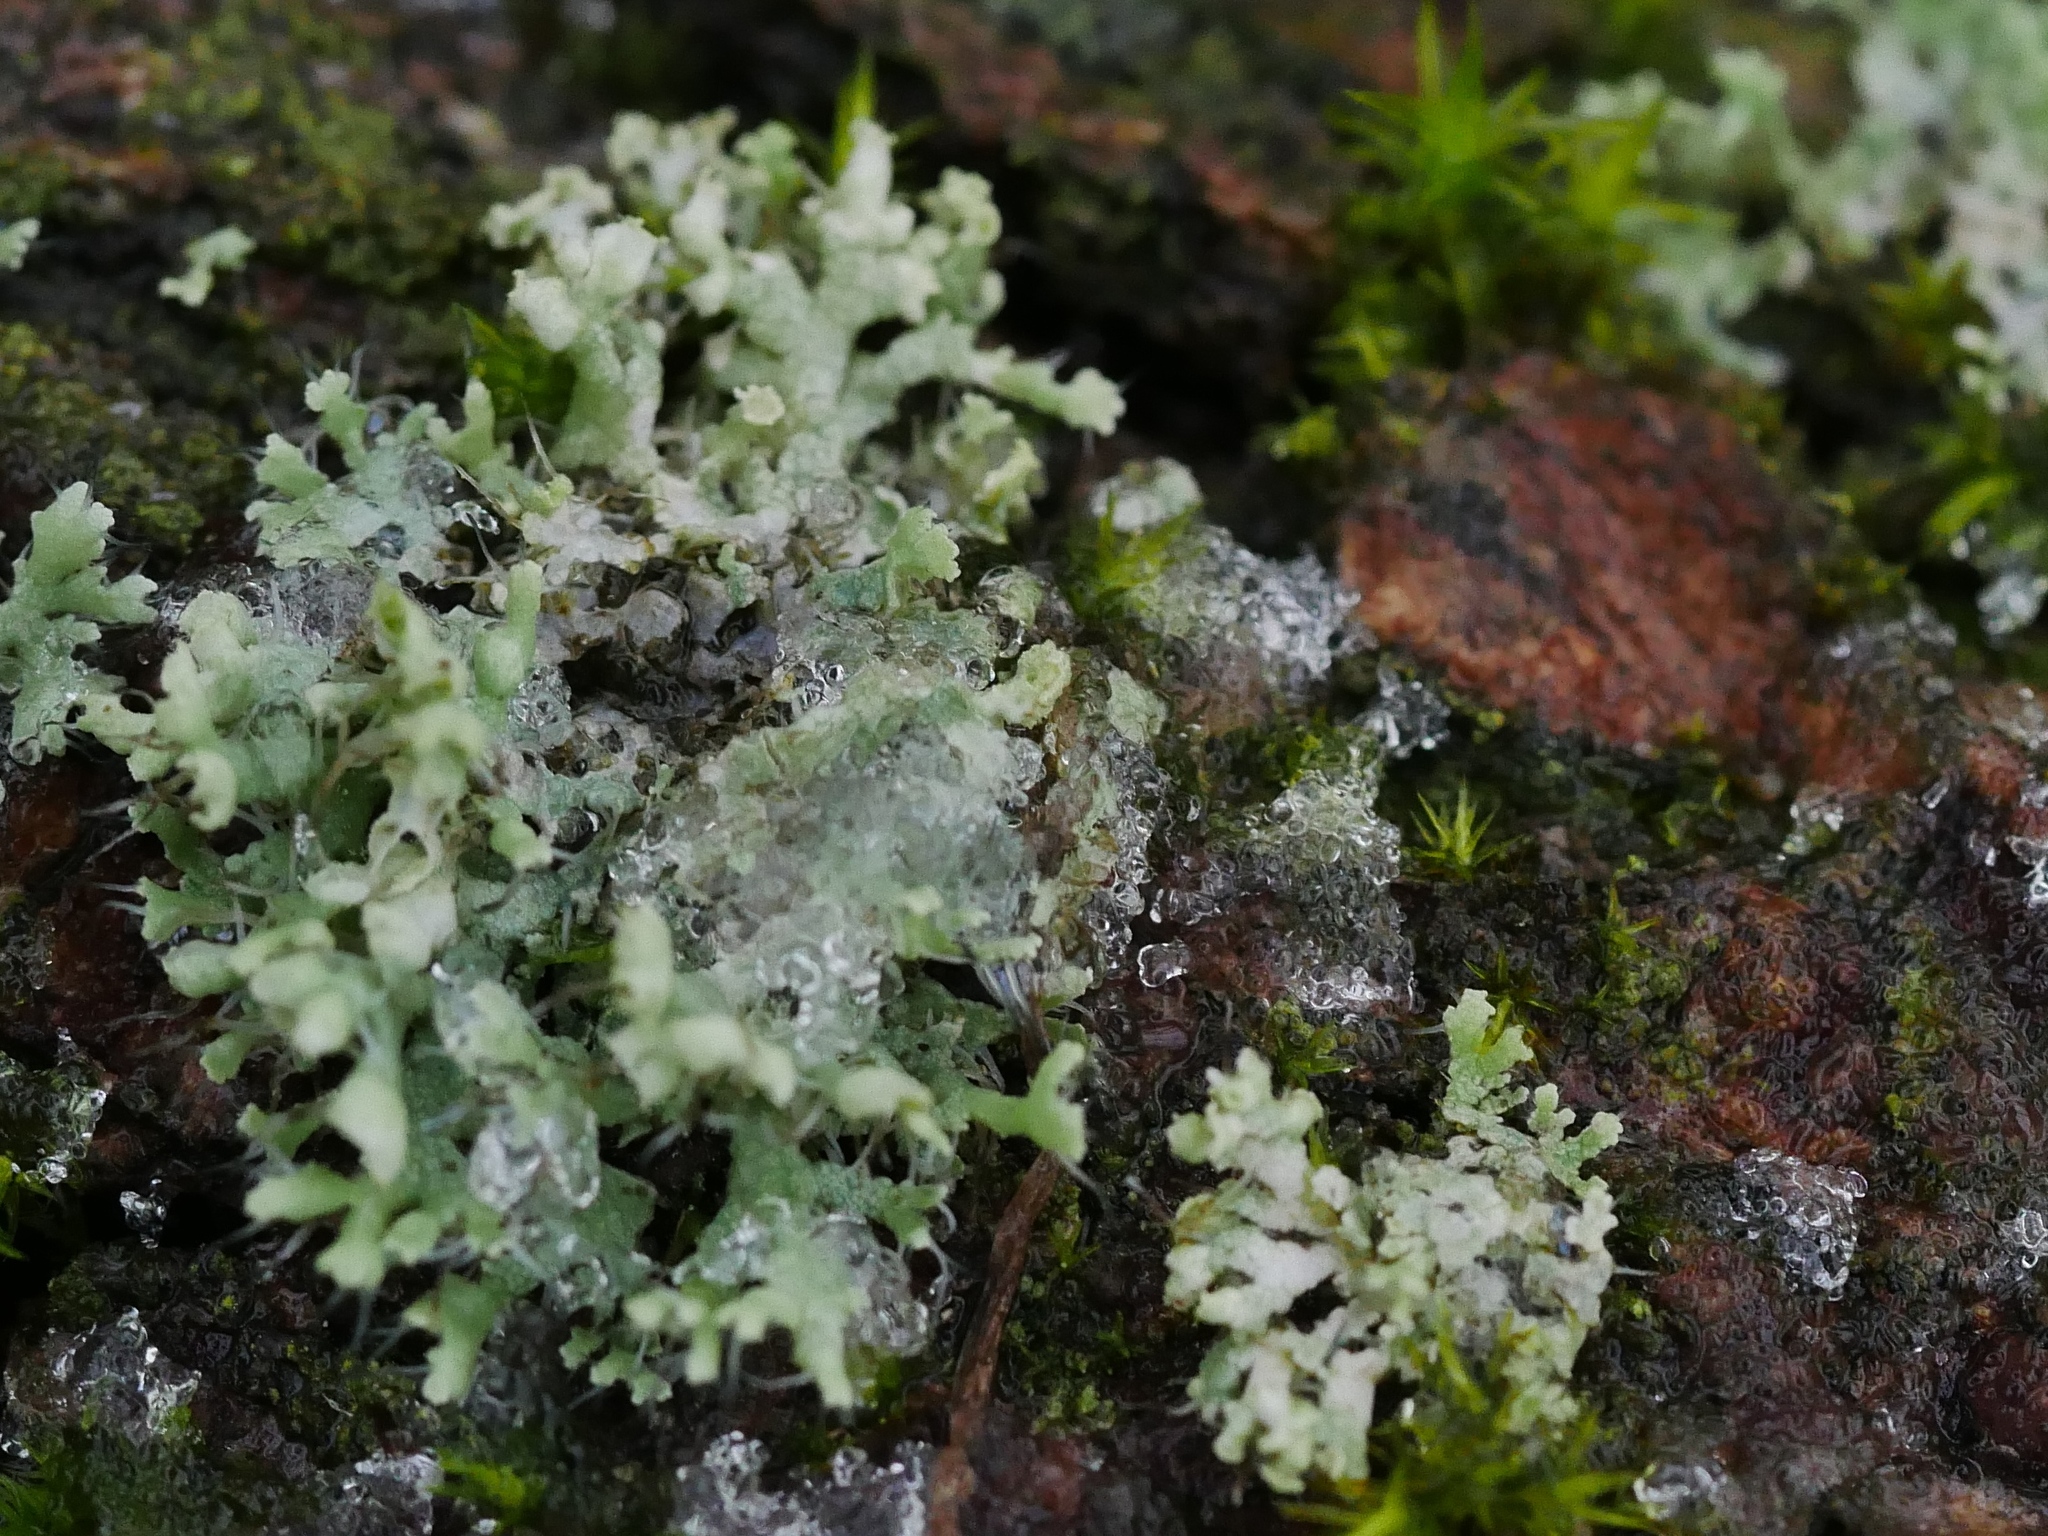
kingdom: Fungi
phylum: Ascomycota
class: Lecanoromycetes
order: Caliciales
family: Physciaceae
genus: Physcia
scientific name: Physcia adscendens
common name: Hooded rosette lichen
